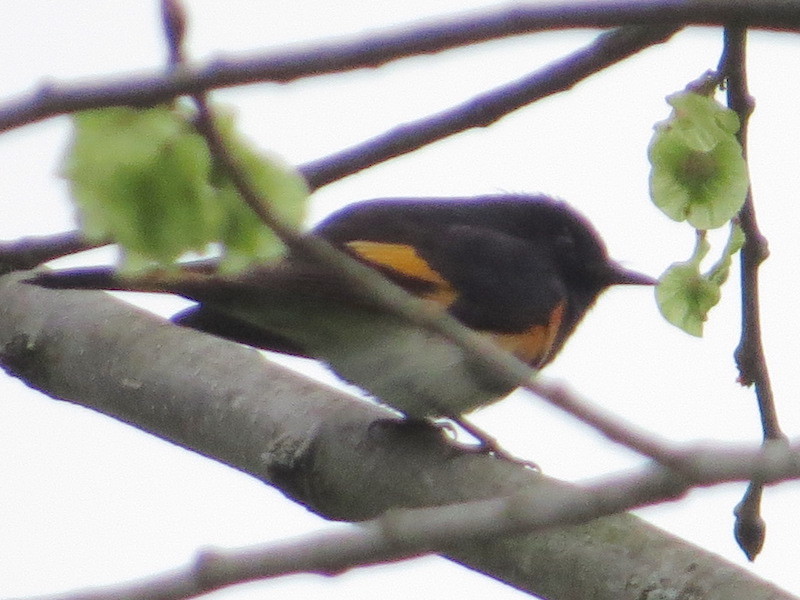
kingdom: Animalia
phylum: Chordata
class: Aves
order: Passeriformes
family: Parulidae
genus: Setophaga
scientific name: Setophaga ruticilla
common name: American redstart
